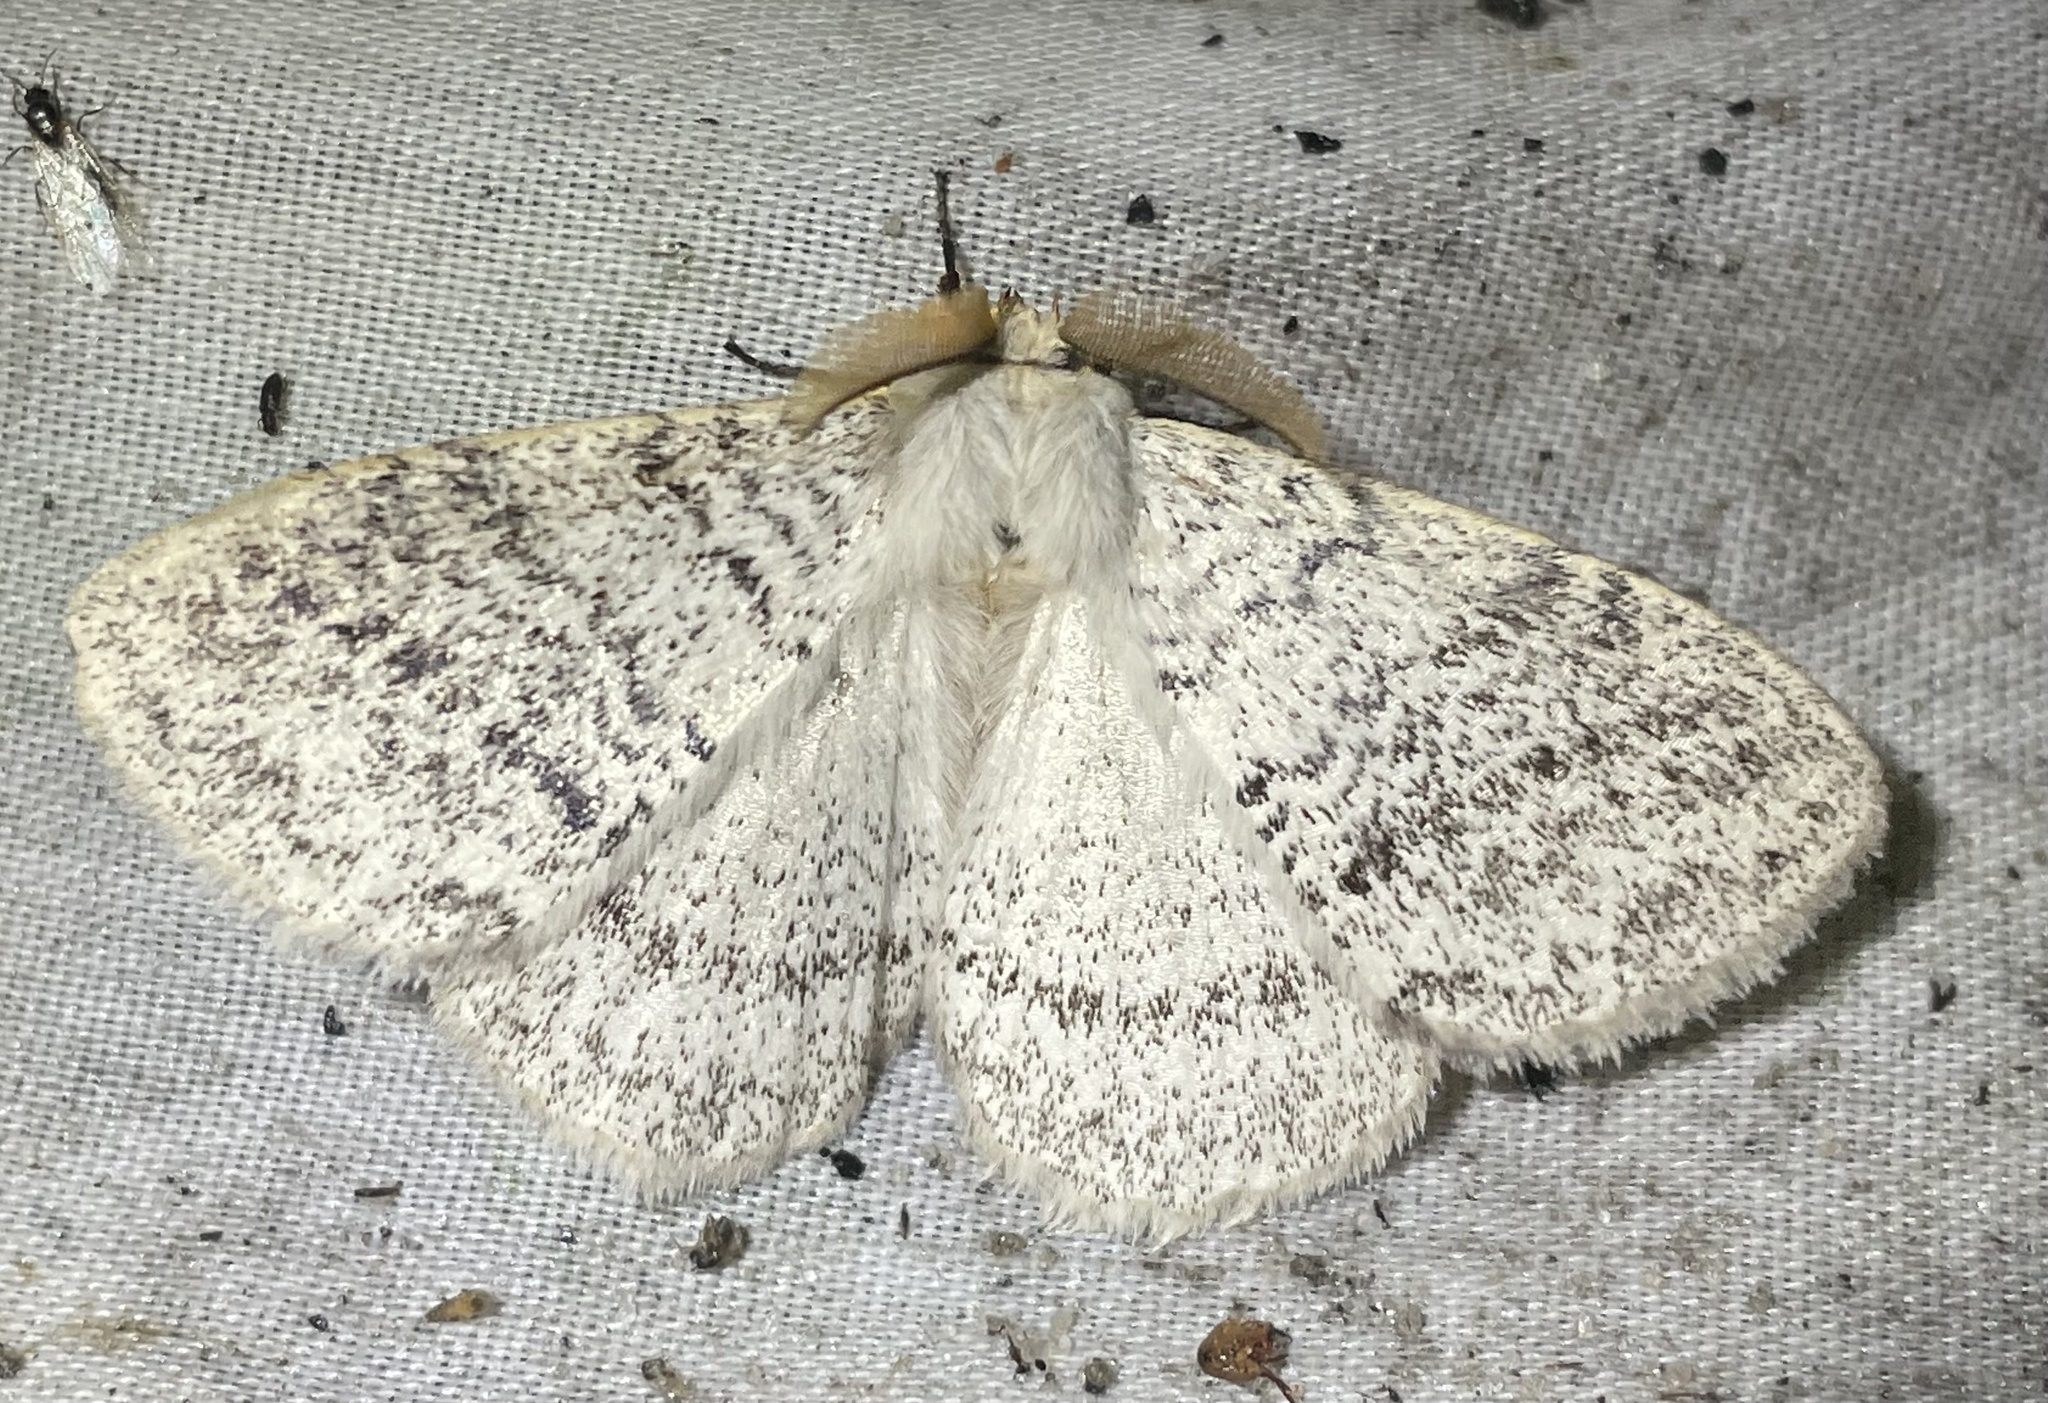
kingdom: Animalia
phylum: Arthropoda
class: Insecta
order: Lepidoptera
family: Eupterotidae
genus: Phiala
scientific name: Phiala hologramma
